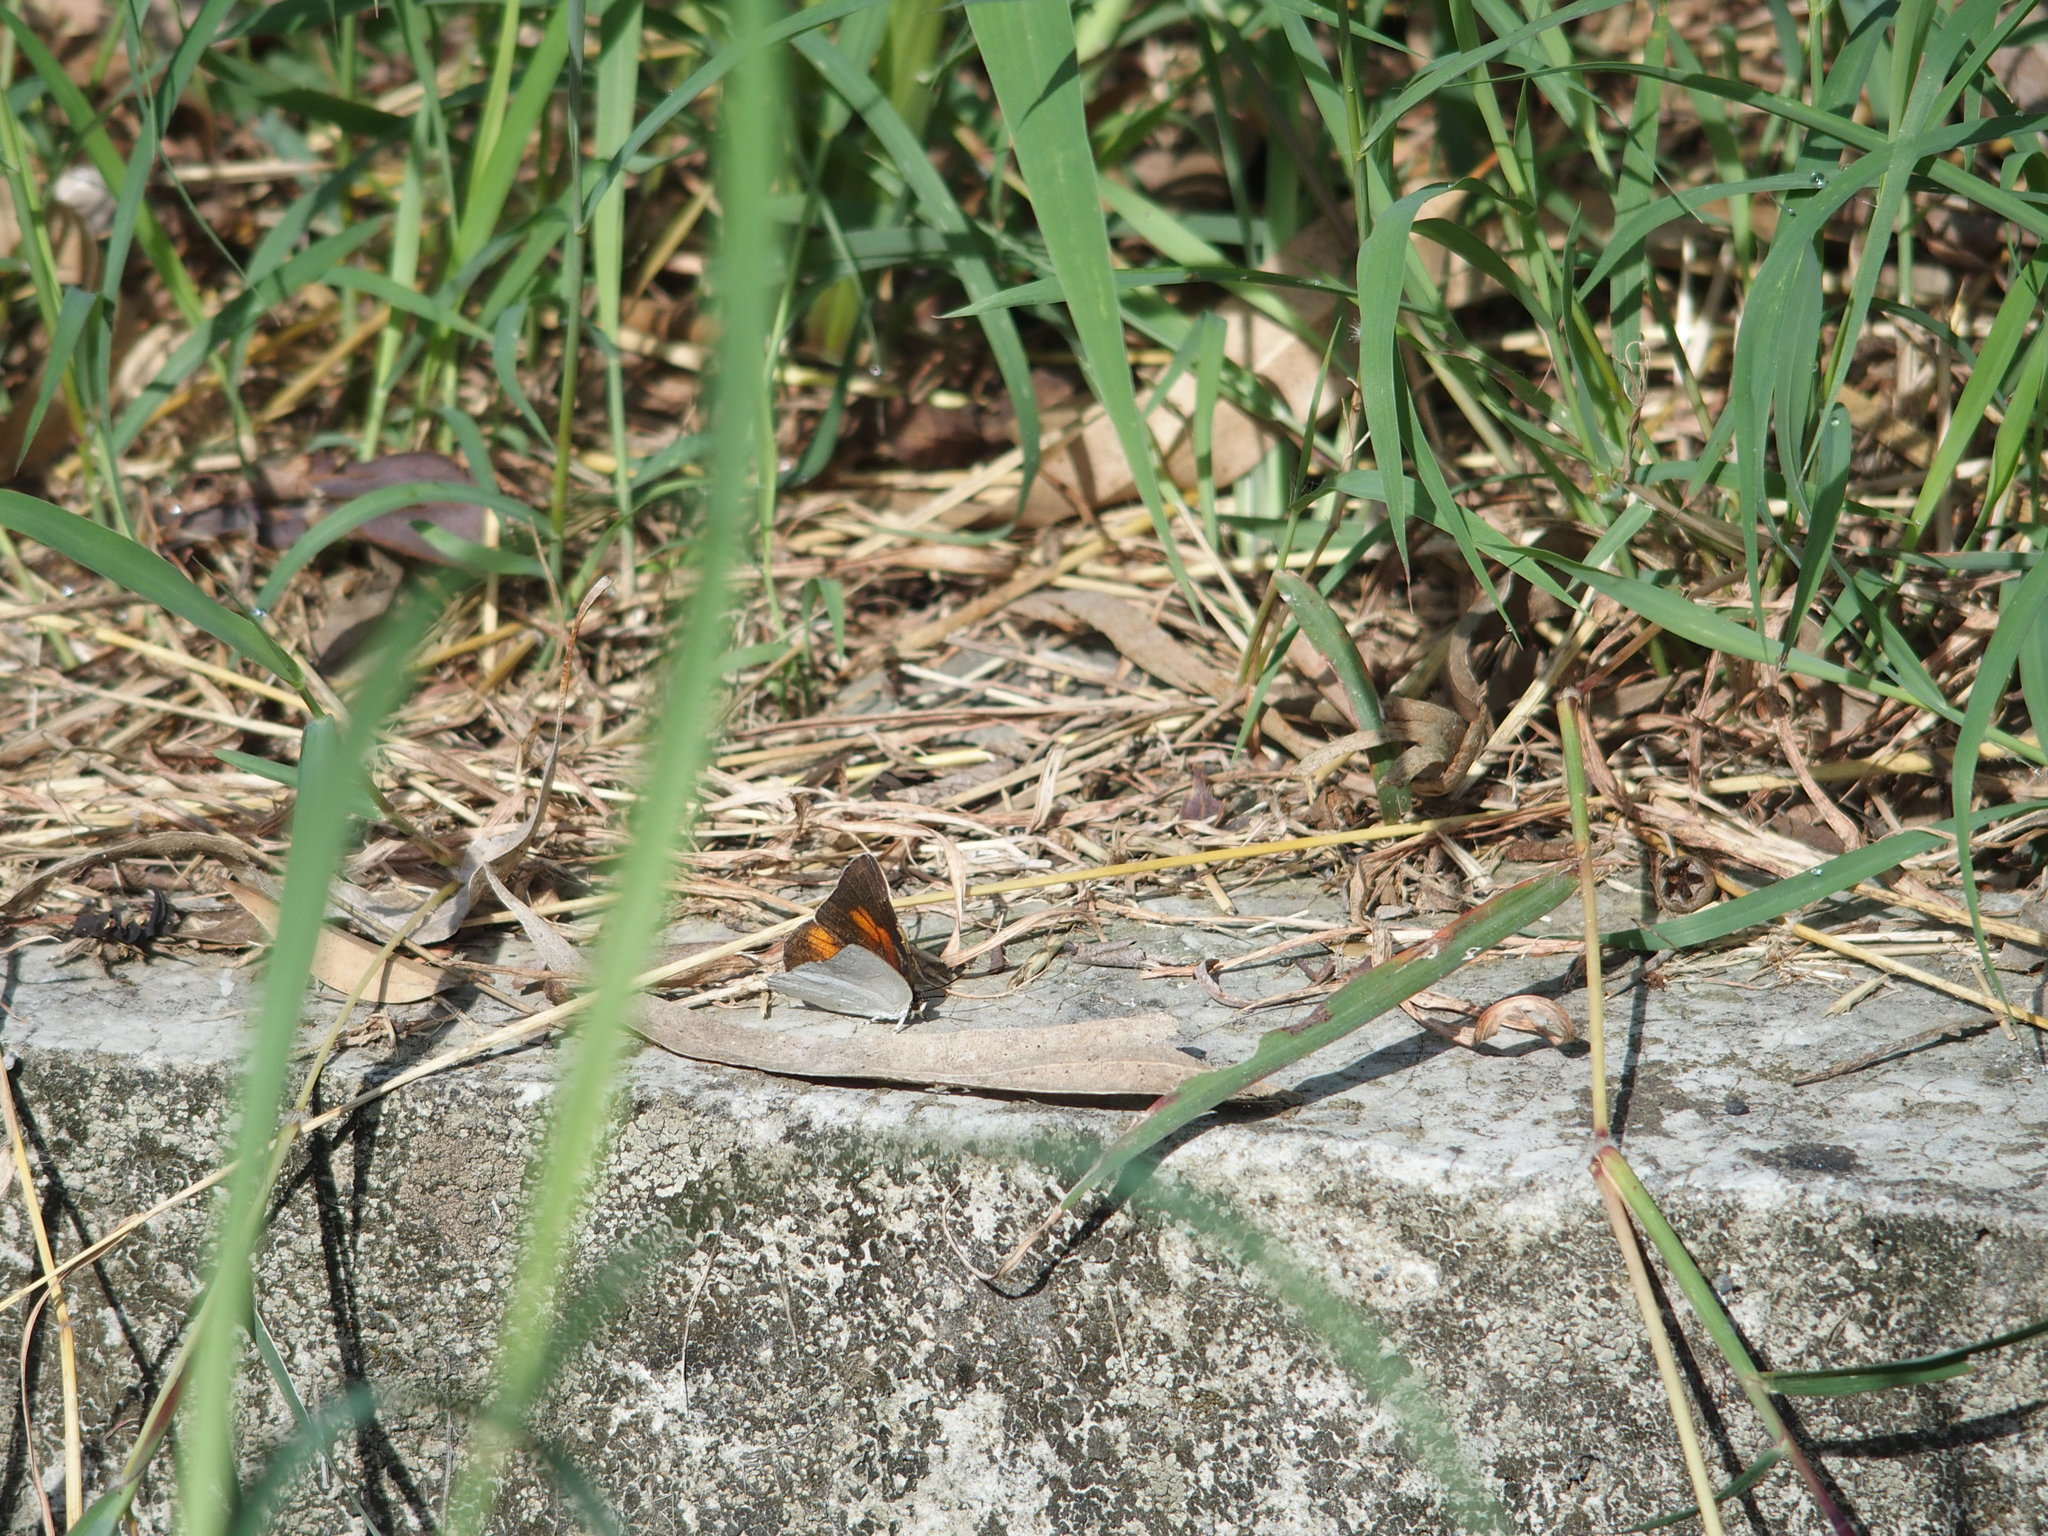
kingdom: Animalia
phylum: Arthropoda
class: Insecta
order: Lepidoptera
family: Lycaenidae
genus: Curetis
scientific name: Curetis acuta
